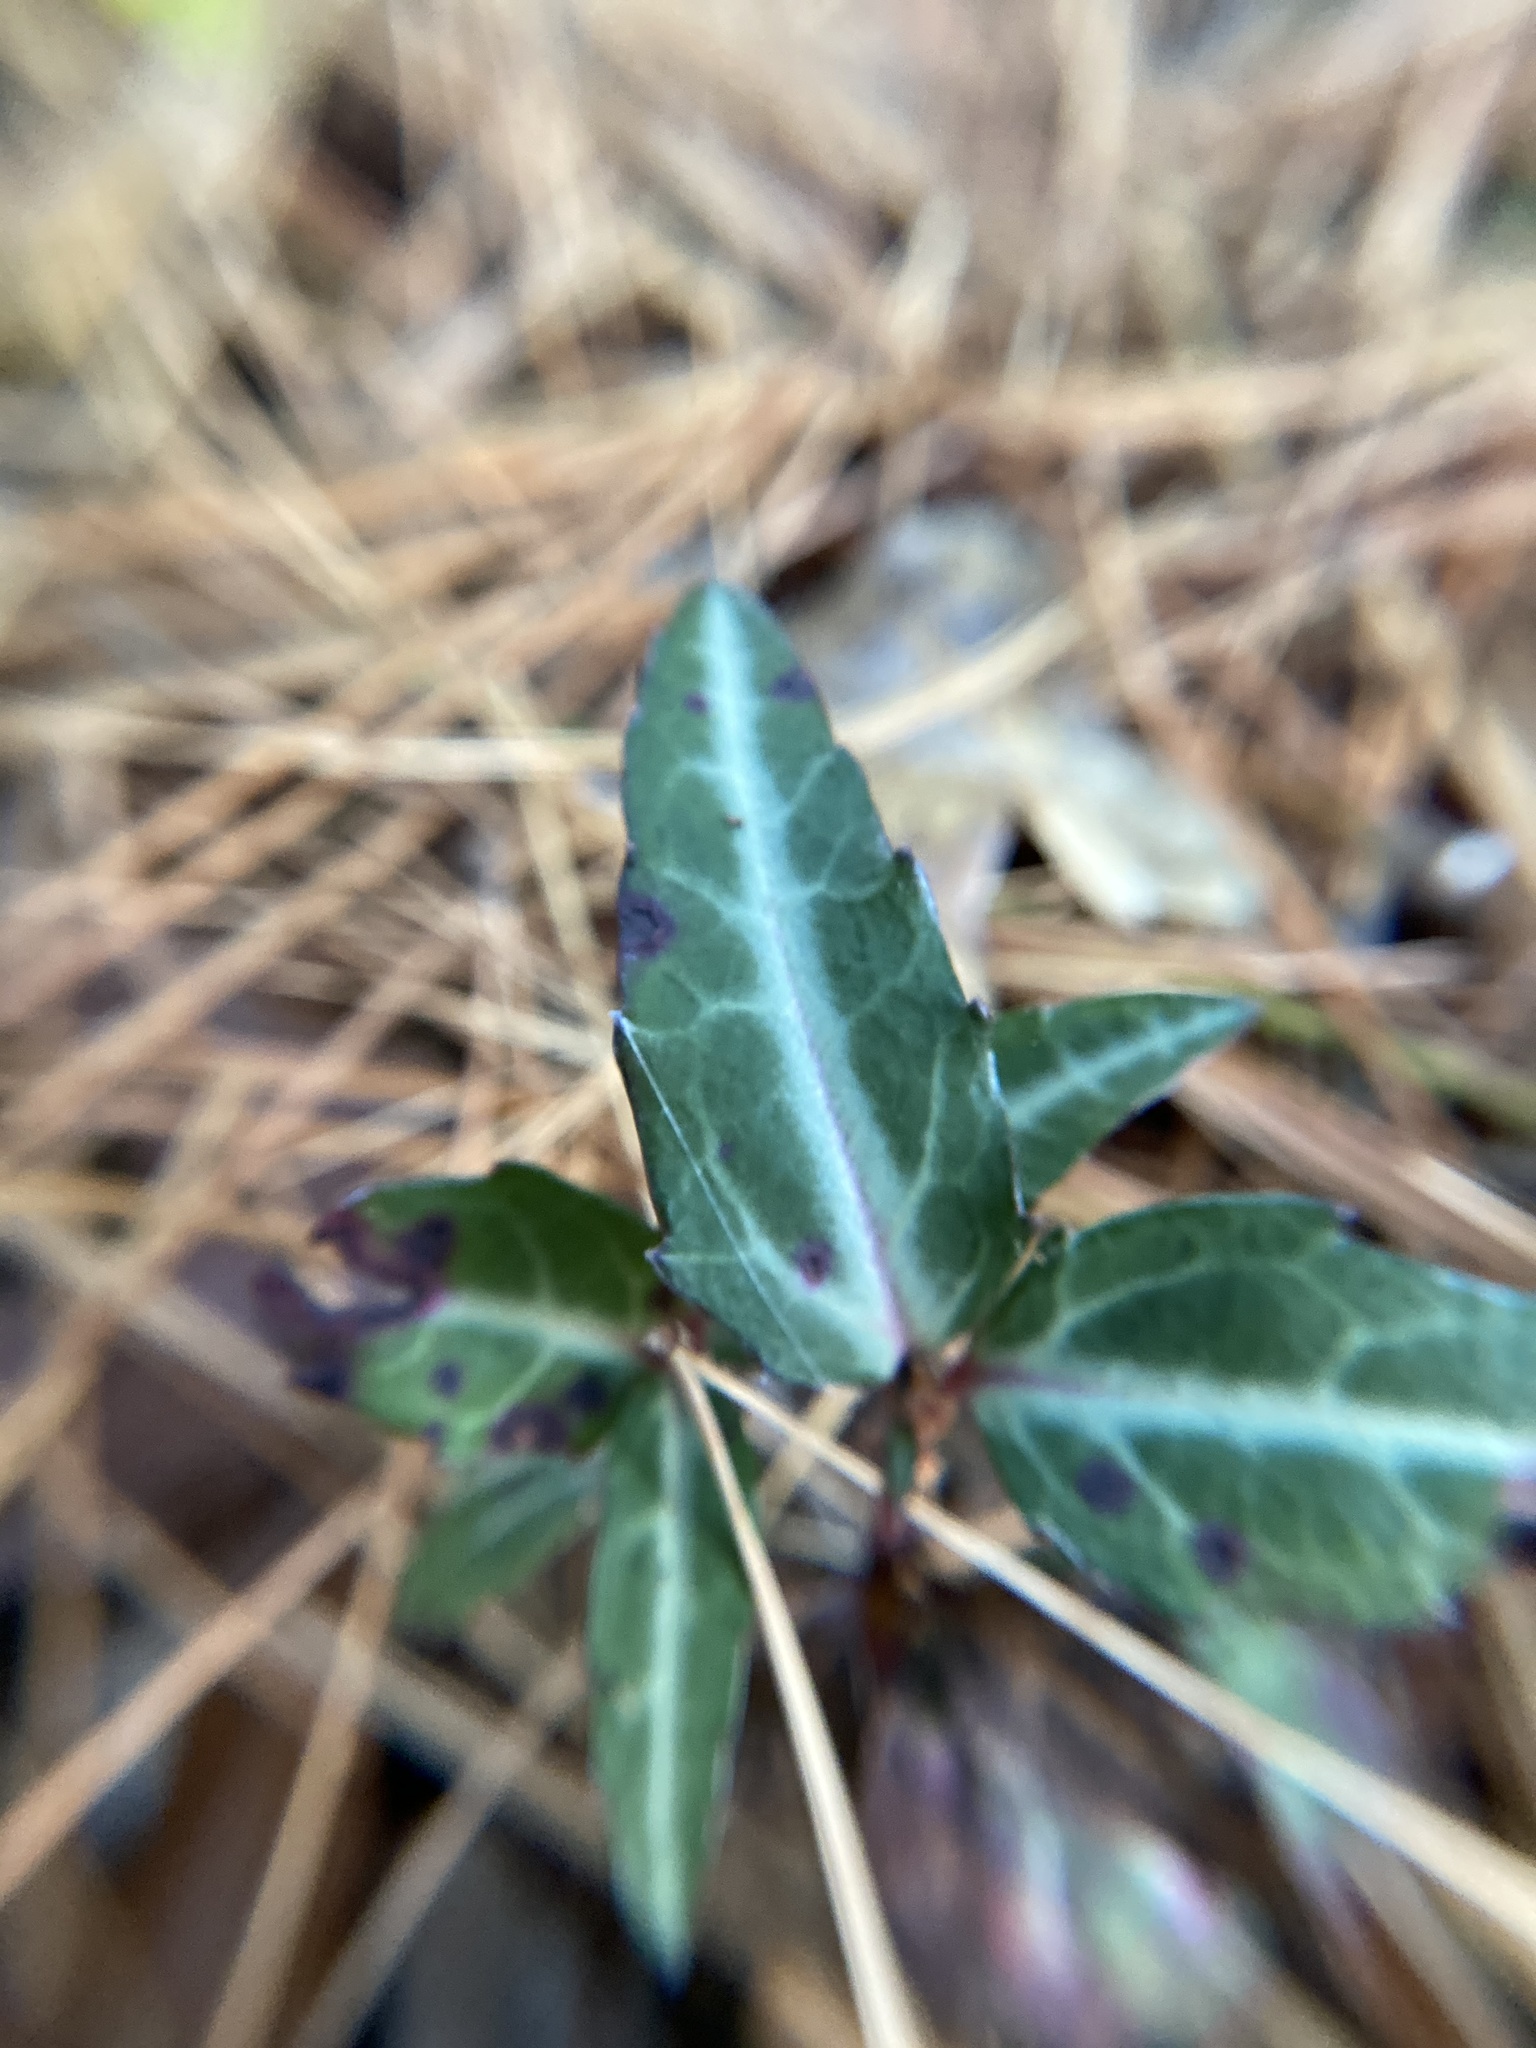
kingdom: Plantae
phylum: Tracheophyta
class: Magnoliopsida
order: Ericales
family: Ericaceae
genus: Chimaphila
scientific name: Chimaphila maculata
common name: Spotted pipsissewa
